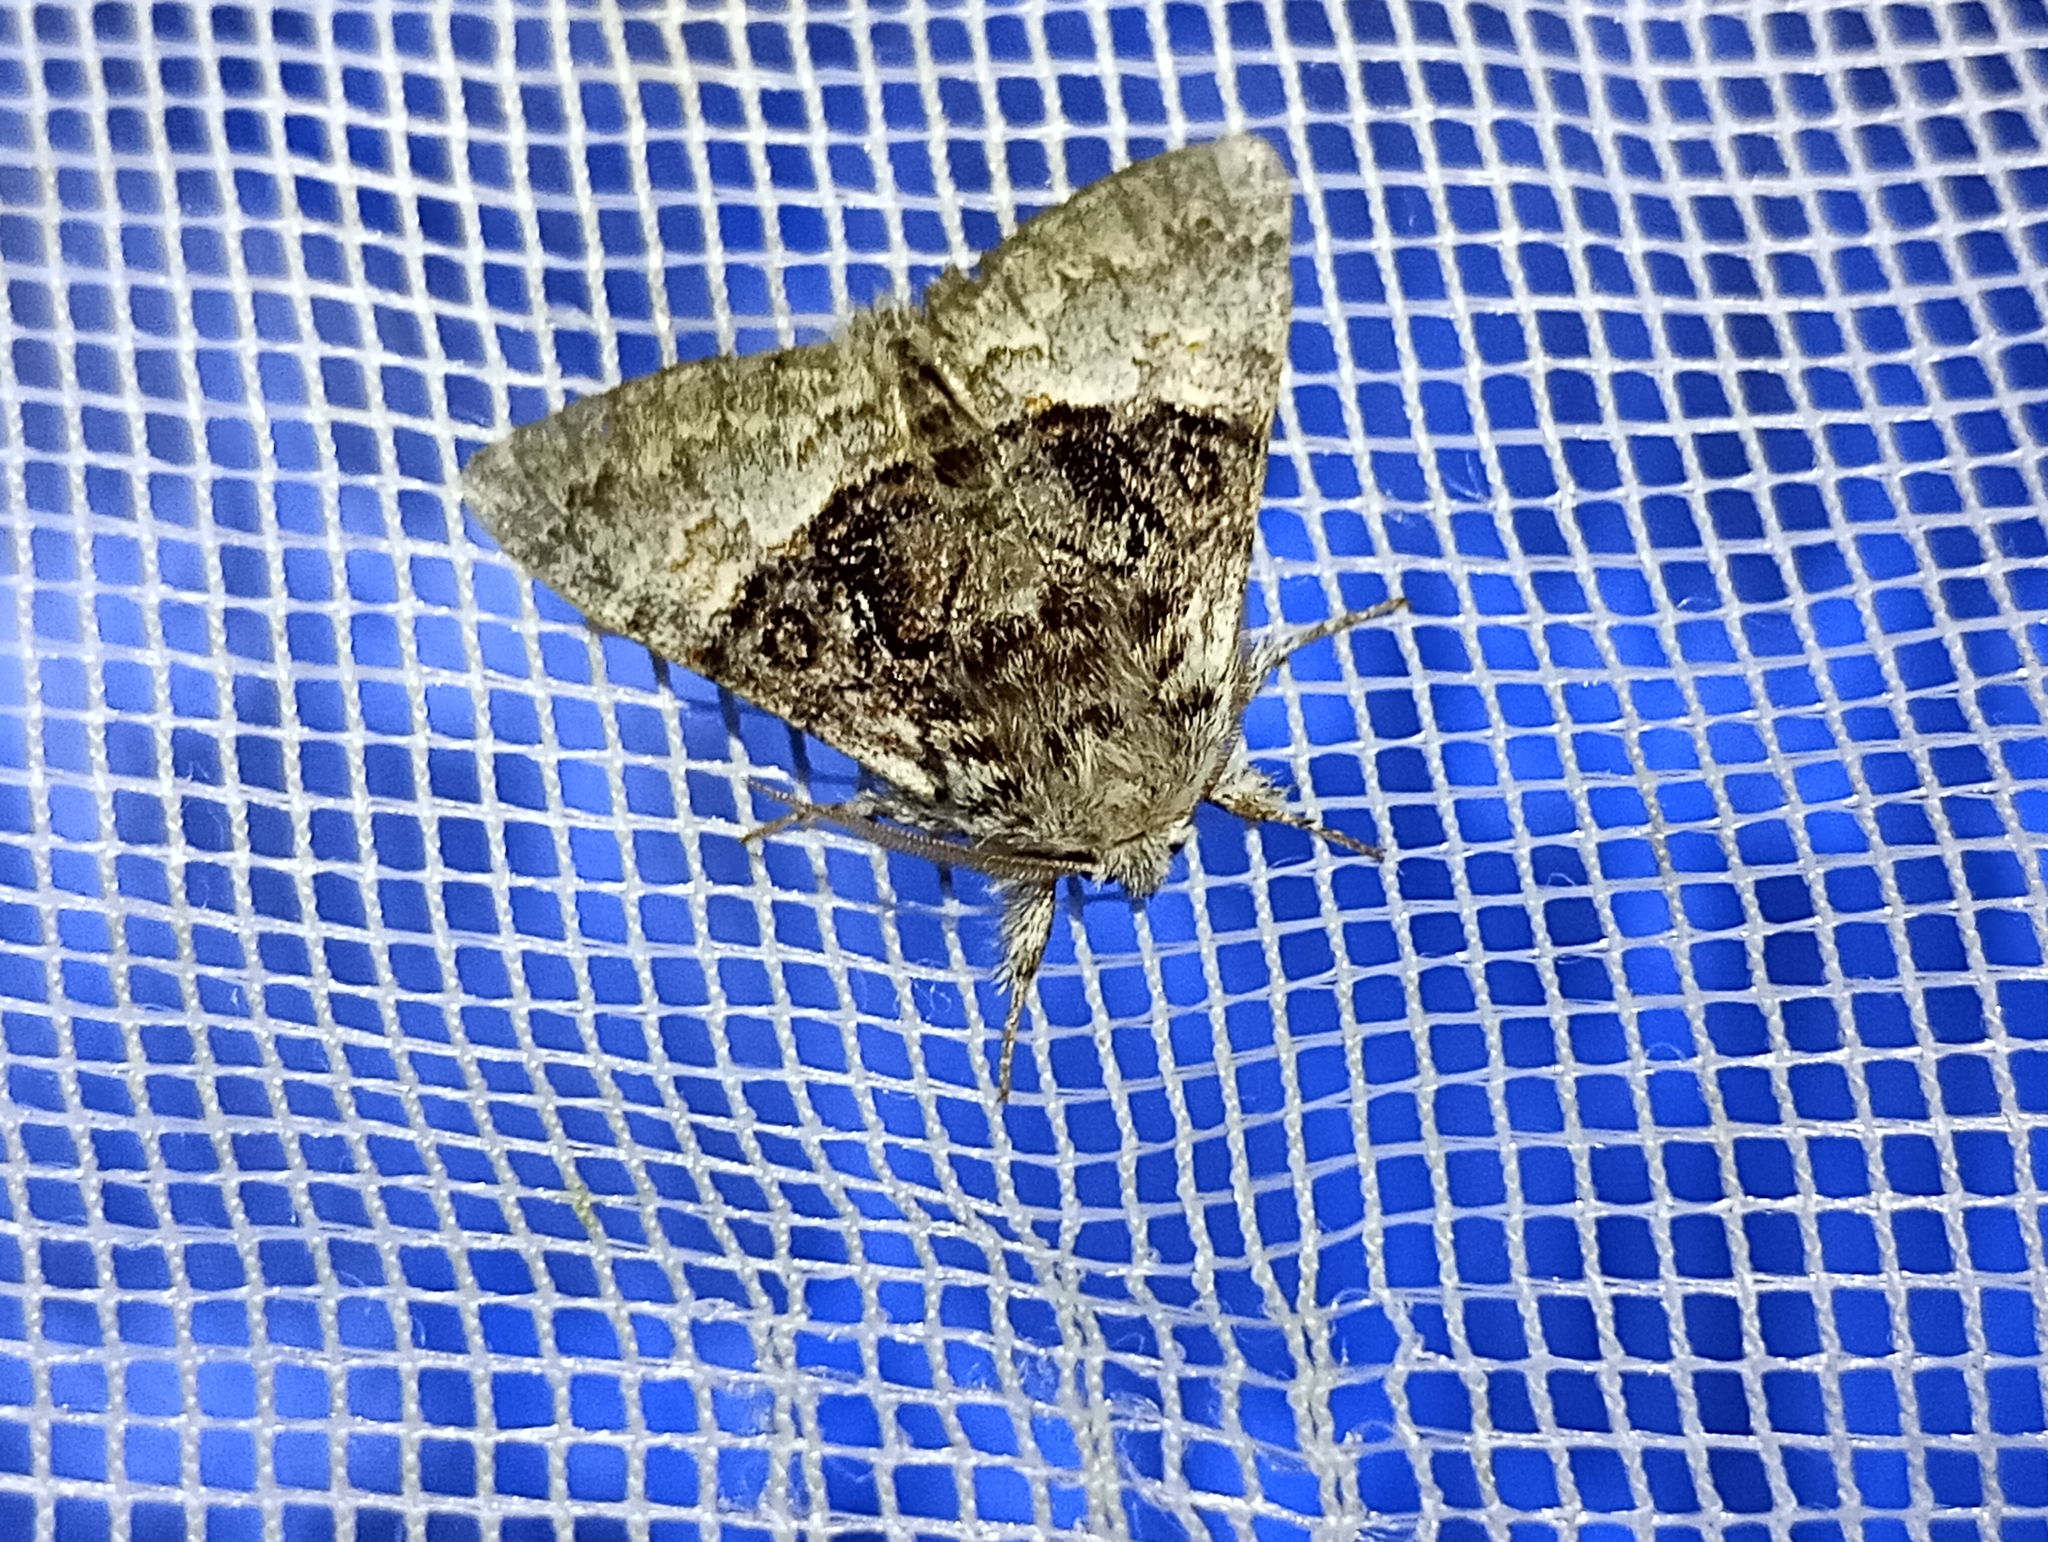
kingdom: Animalia
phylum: Arthropoda
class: Insecta
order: Lepidoptera
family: Noctuidae
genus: Colocasia
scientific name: Colocasia coryli
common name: Nut-tree tussock
